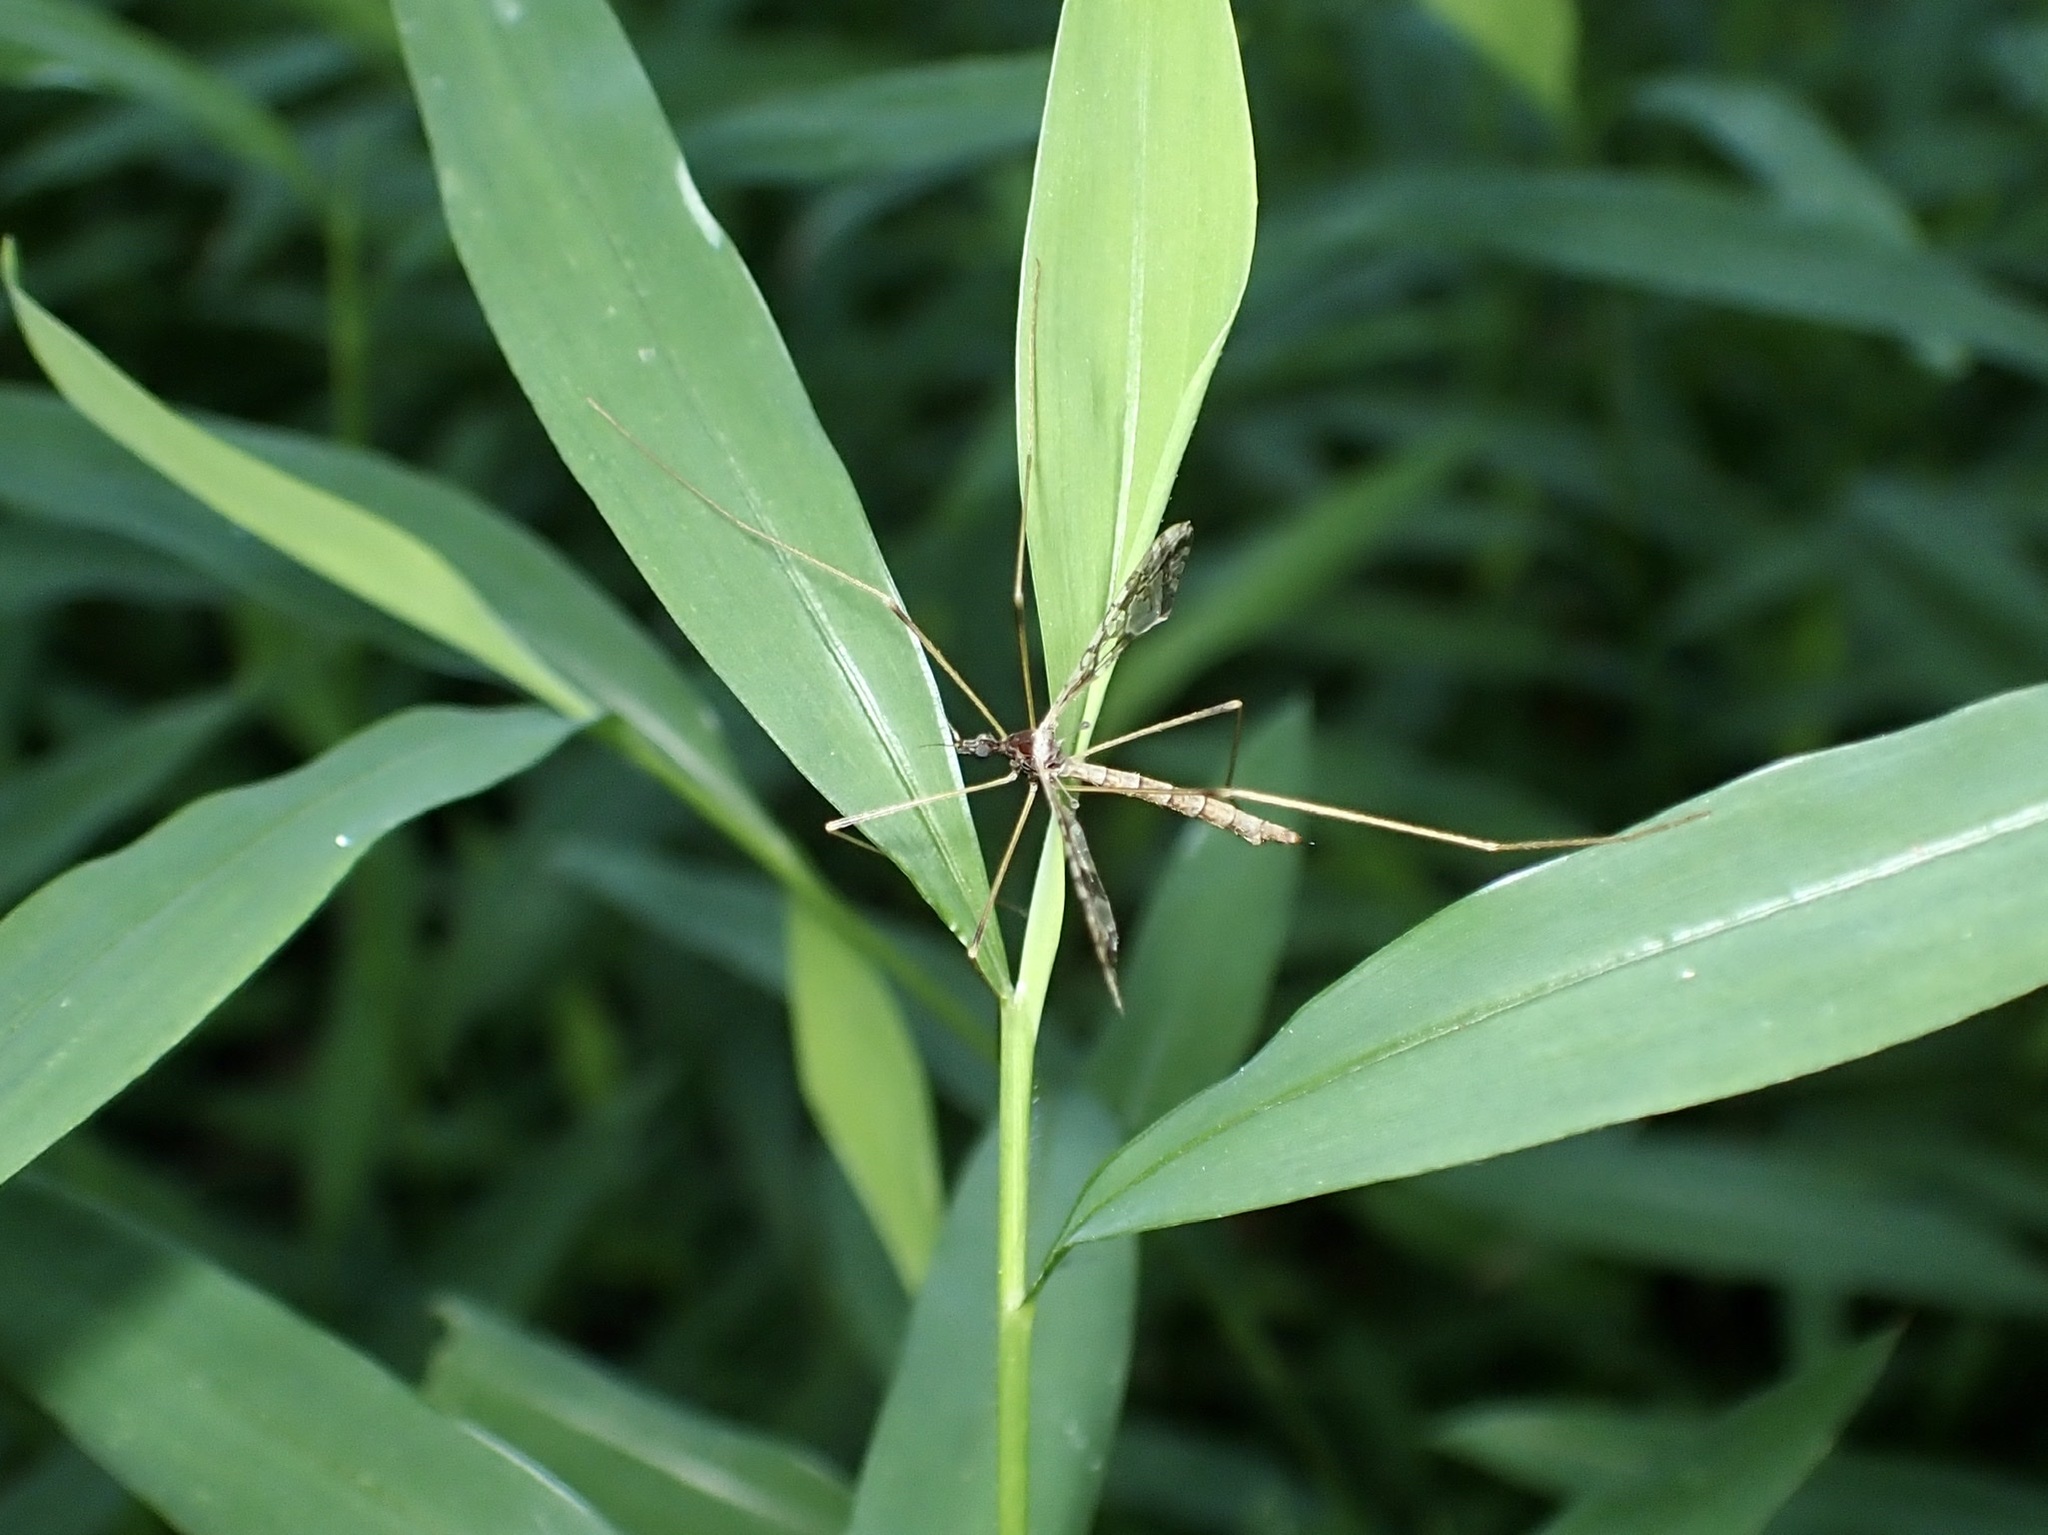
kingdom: Animalia
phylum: Arthropoda
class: Insecta
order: Diptera
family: Limoniidae
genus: Epiphragma
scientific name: Epiphragma solatrix
